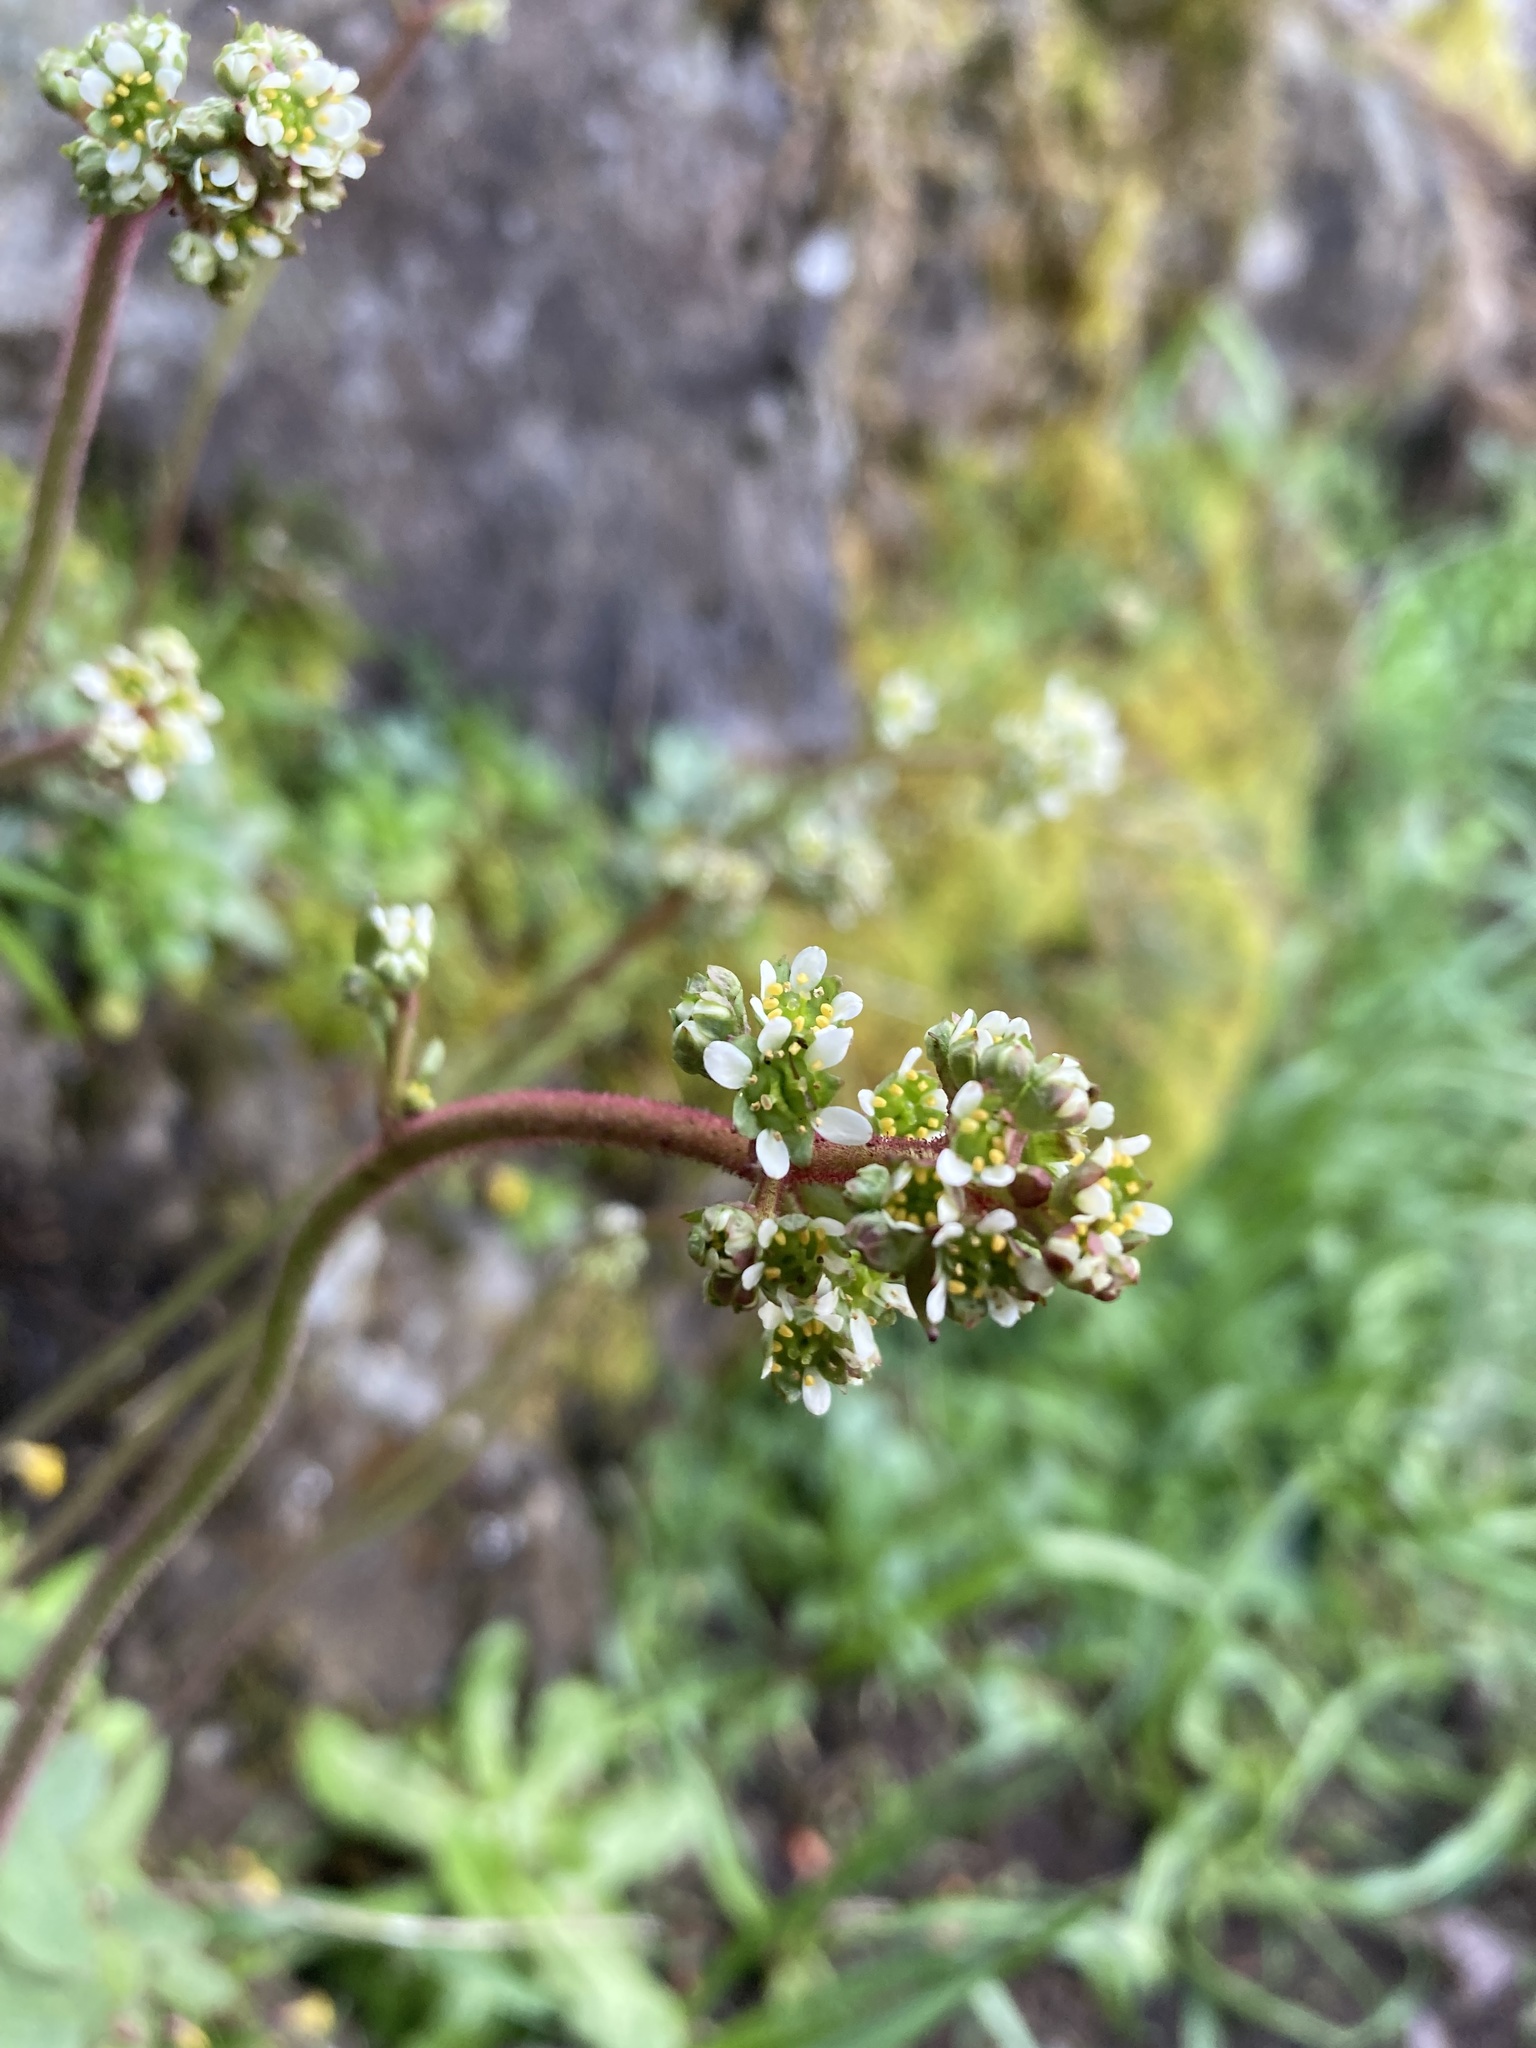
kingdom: Plantae
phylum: Tracheophyta
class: Magnoliopsida
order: Saxifragales
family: Saxifragaceae
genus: Micranthes
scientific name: Micranthes integrifolia
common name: Wholeleaf saxifrage
